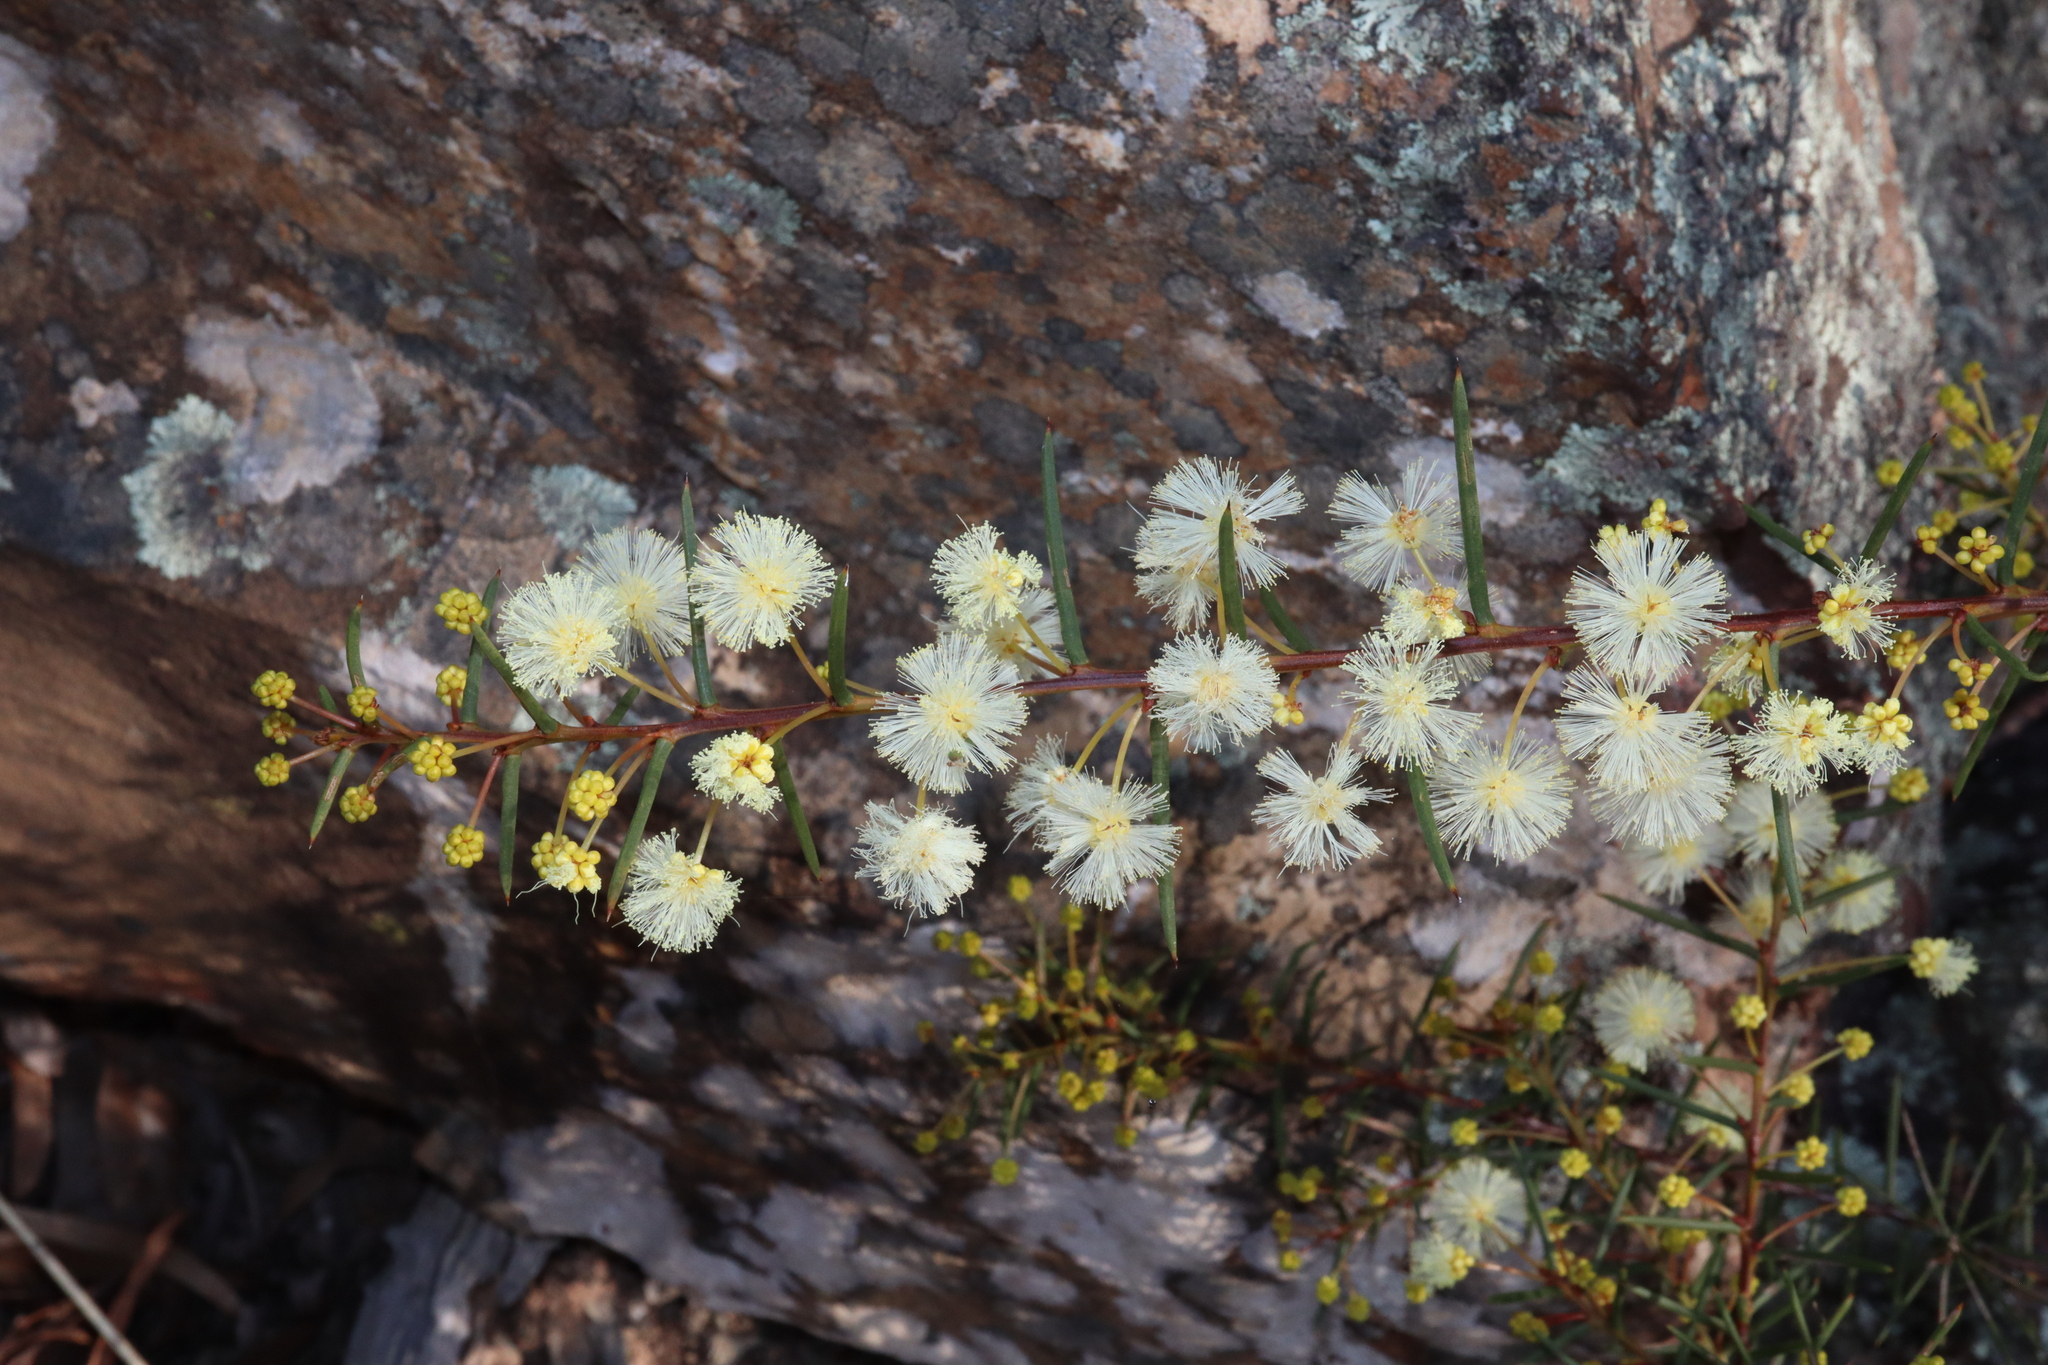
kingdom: Plantae
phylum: Tracheophyta
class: Magnoliopsida
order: Fabales
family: Fabaceae
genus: Acacia
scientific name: Acacia genistifolia
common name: Early wattle
